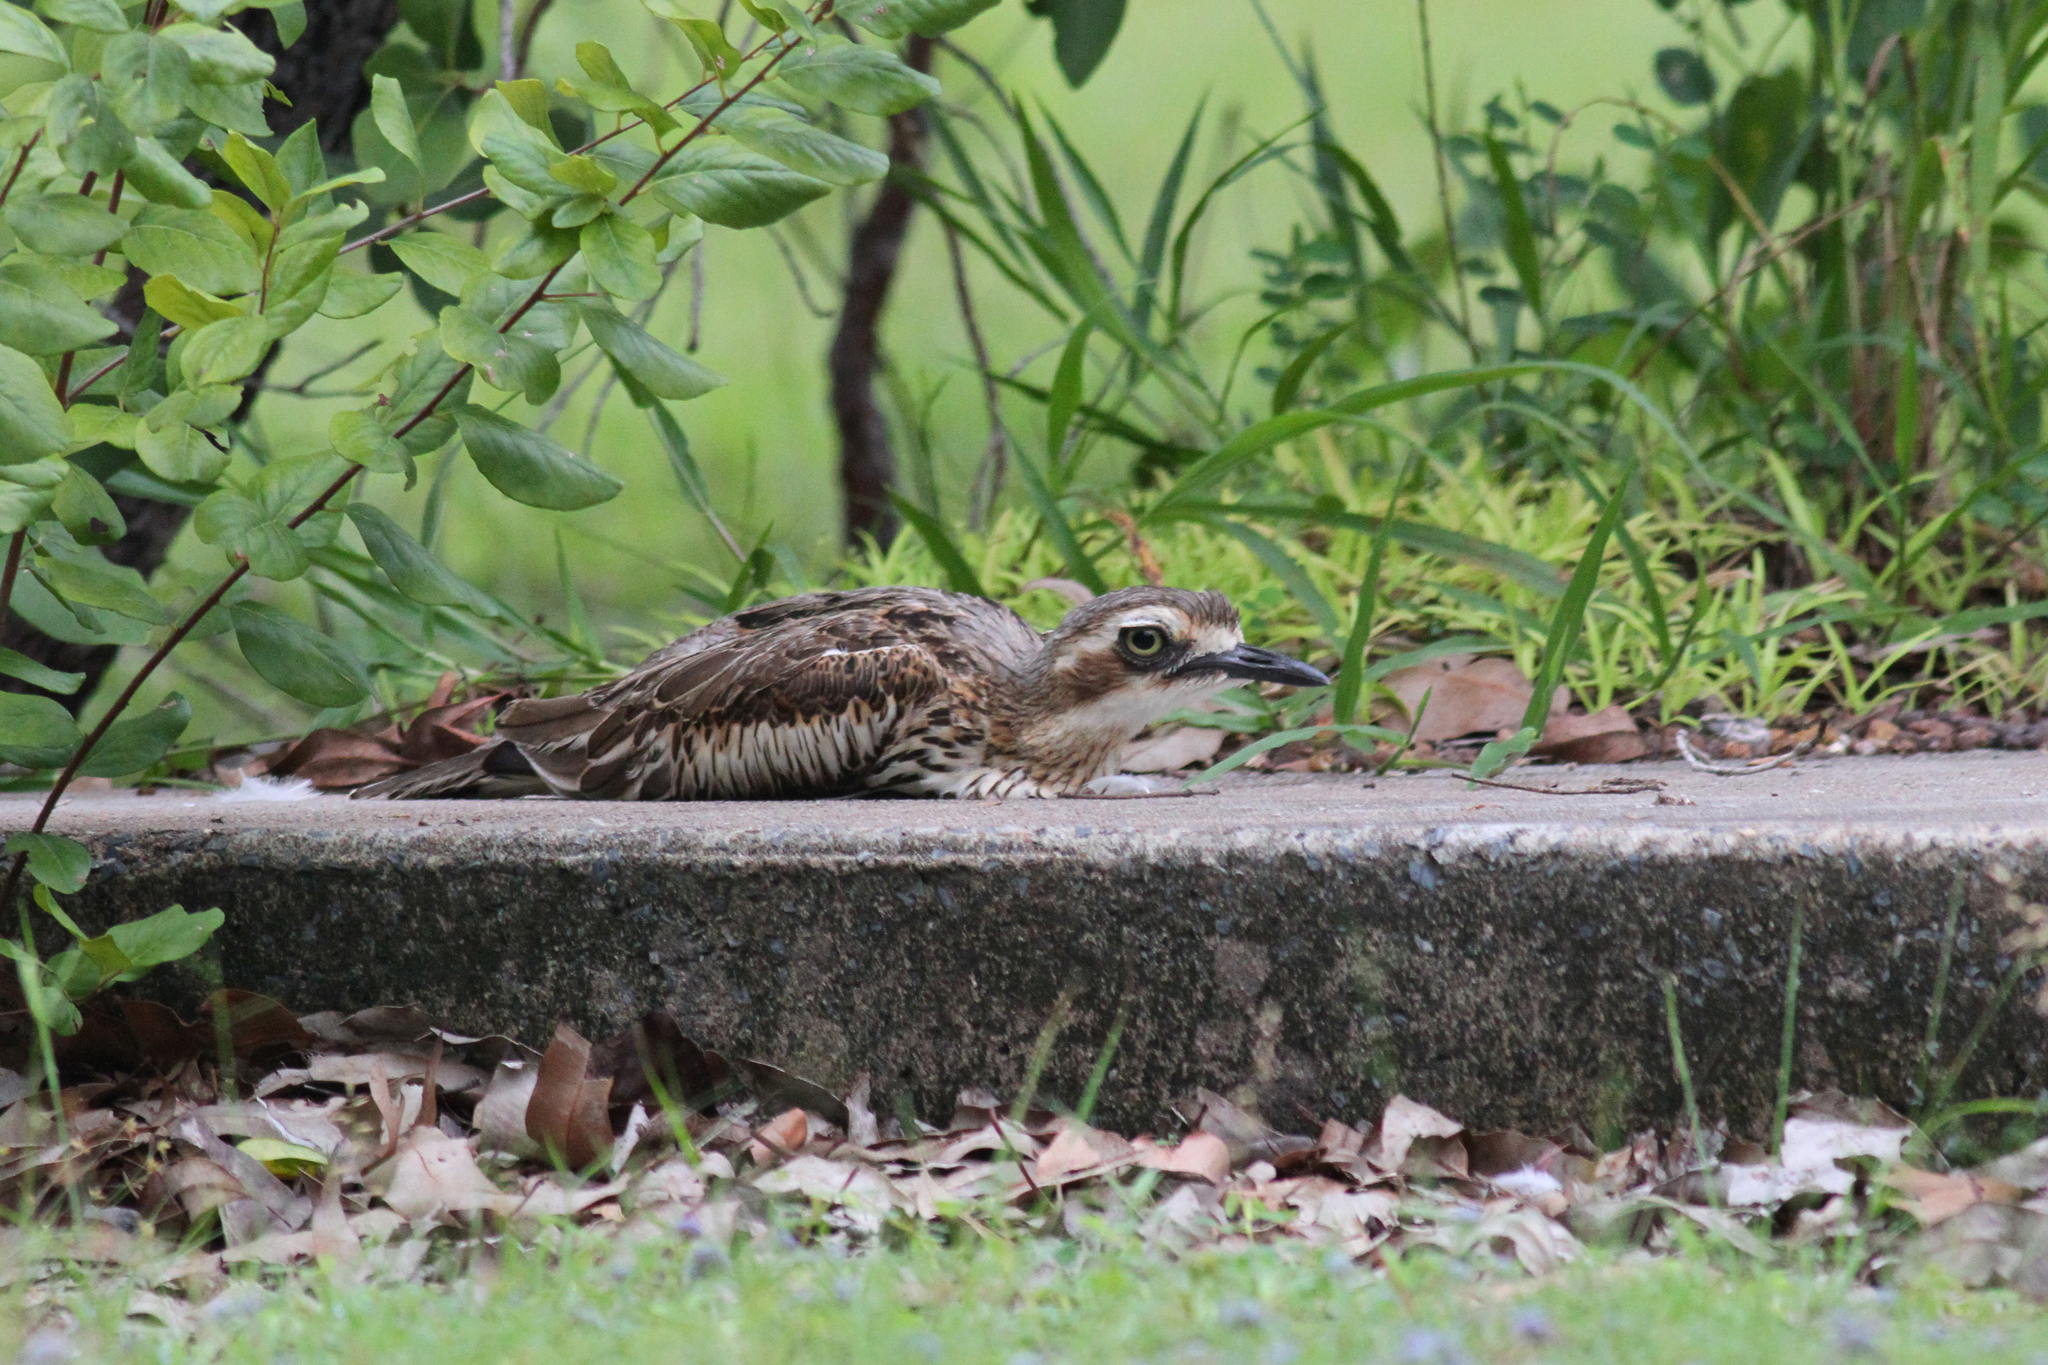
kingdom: Animalia
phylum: Chordata
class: Aves
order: Charadriiformes
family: Burhinidae
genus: Burhinus
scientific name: Burhinus grallarius
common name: Bush stone-curlew
